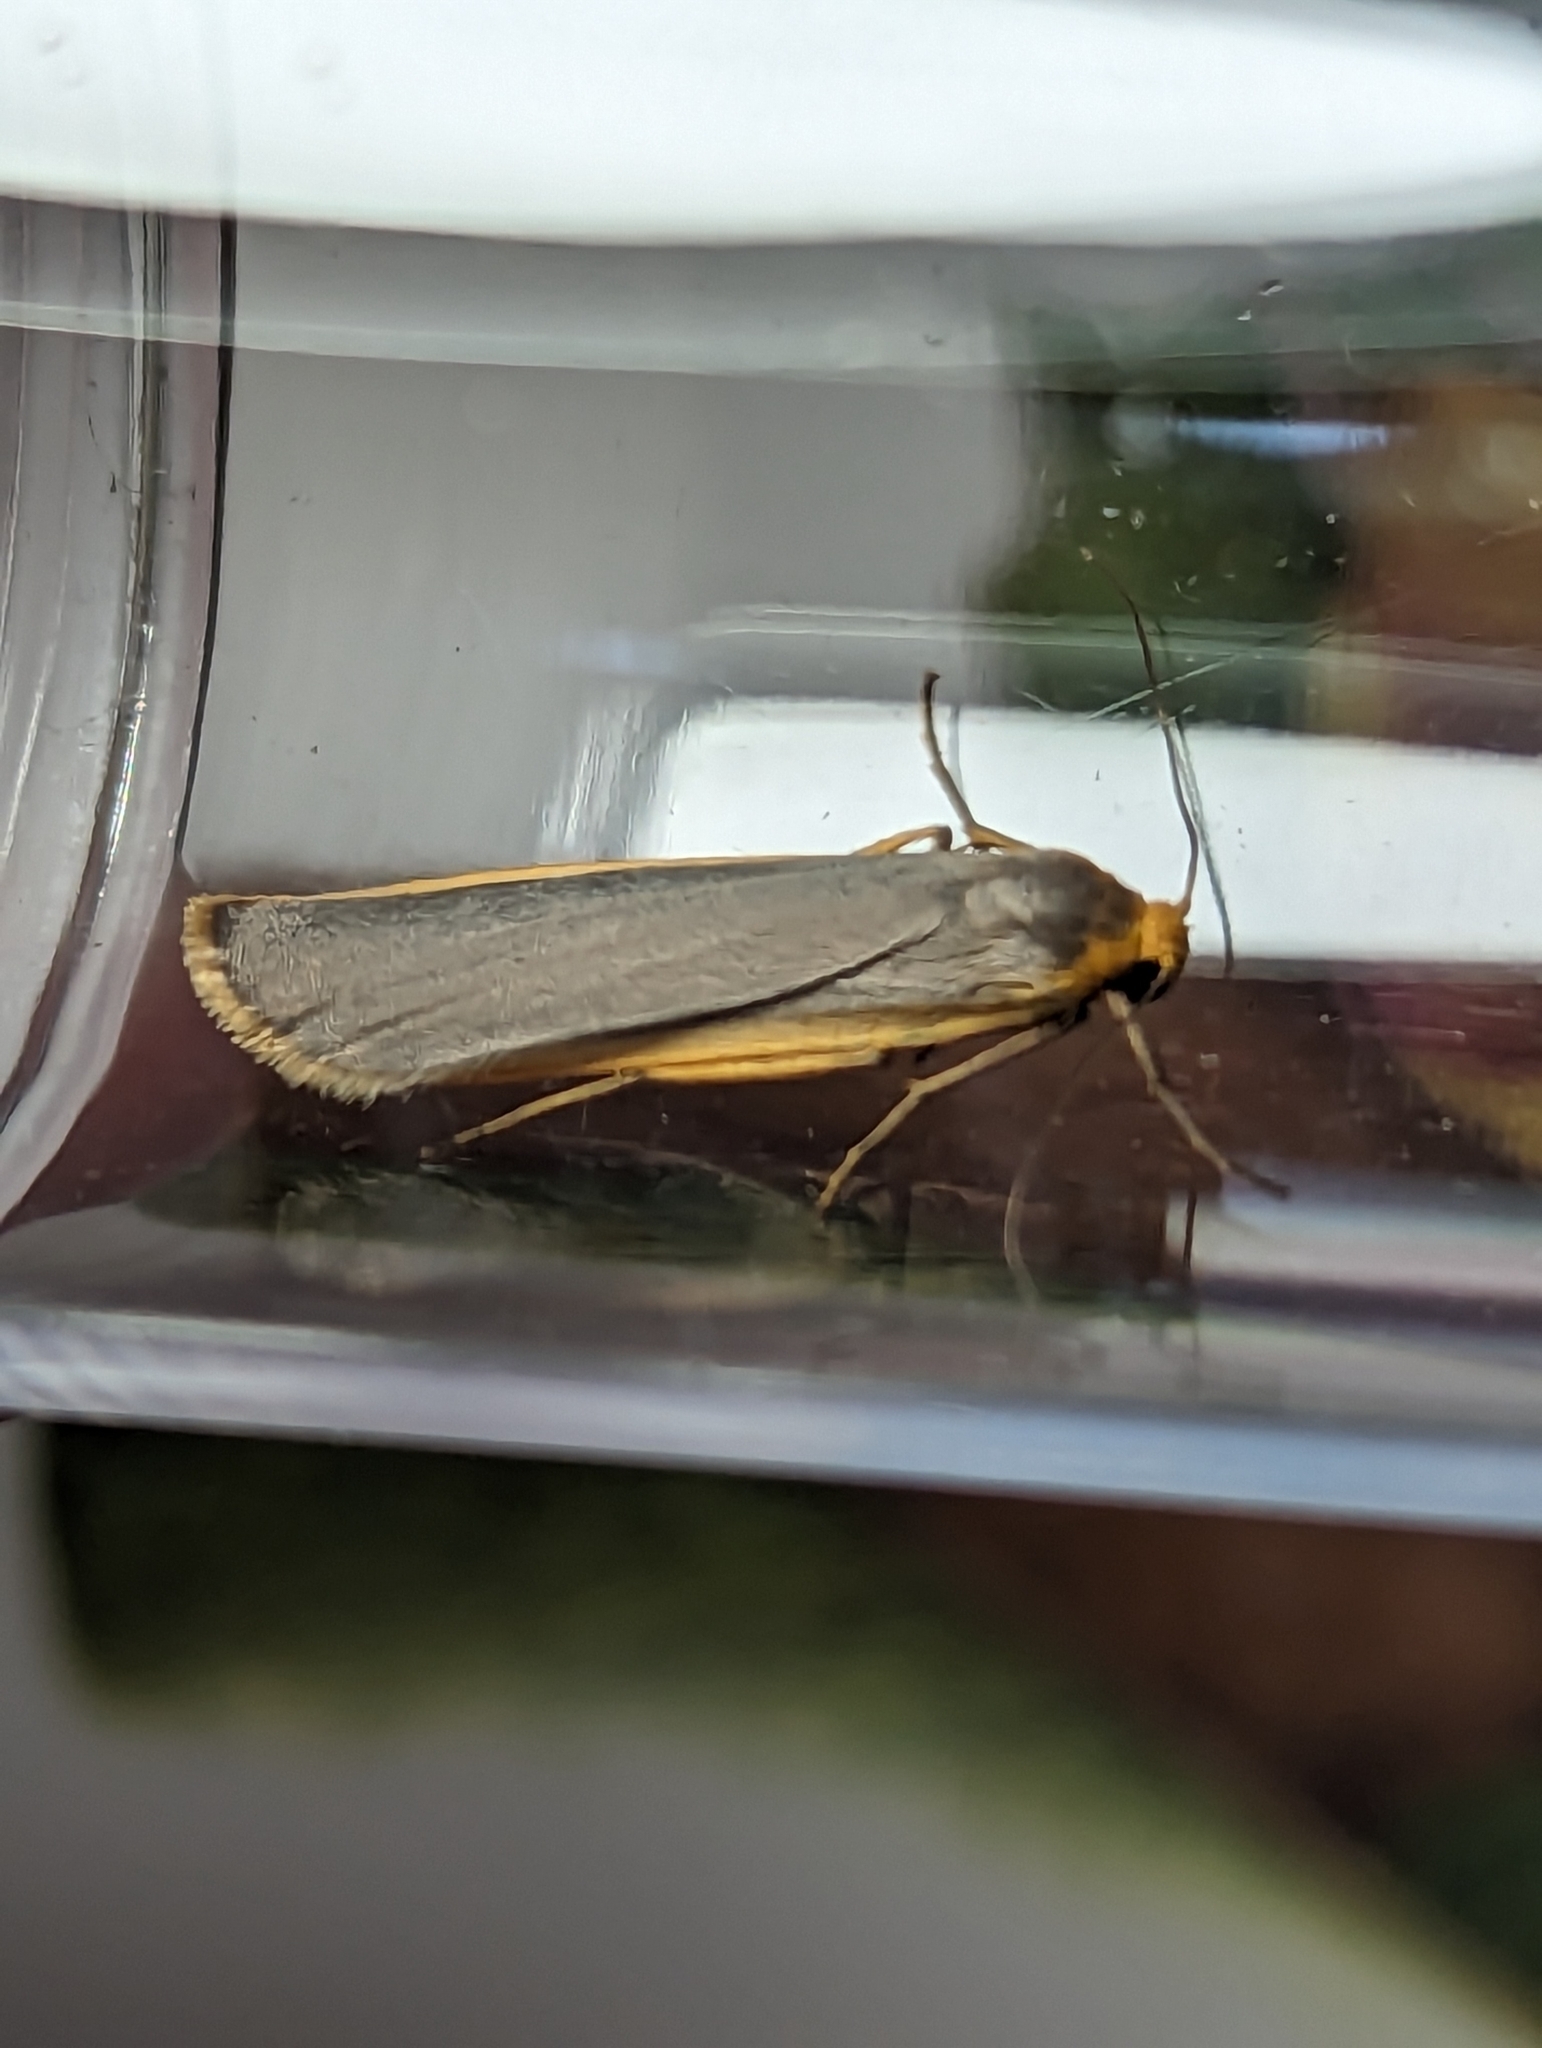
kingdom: Animalia
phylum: Arthropoda
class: Insecta
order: Lepidoptera
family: Erebidae
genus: Nyea
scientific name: Nyea lurideola
